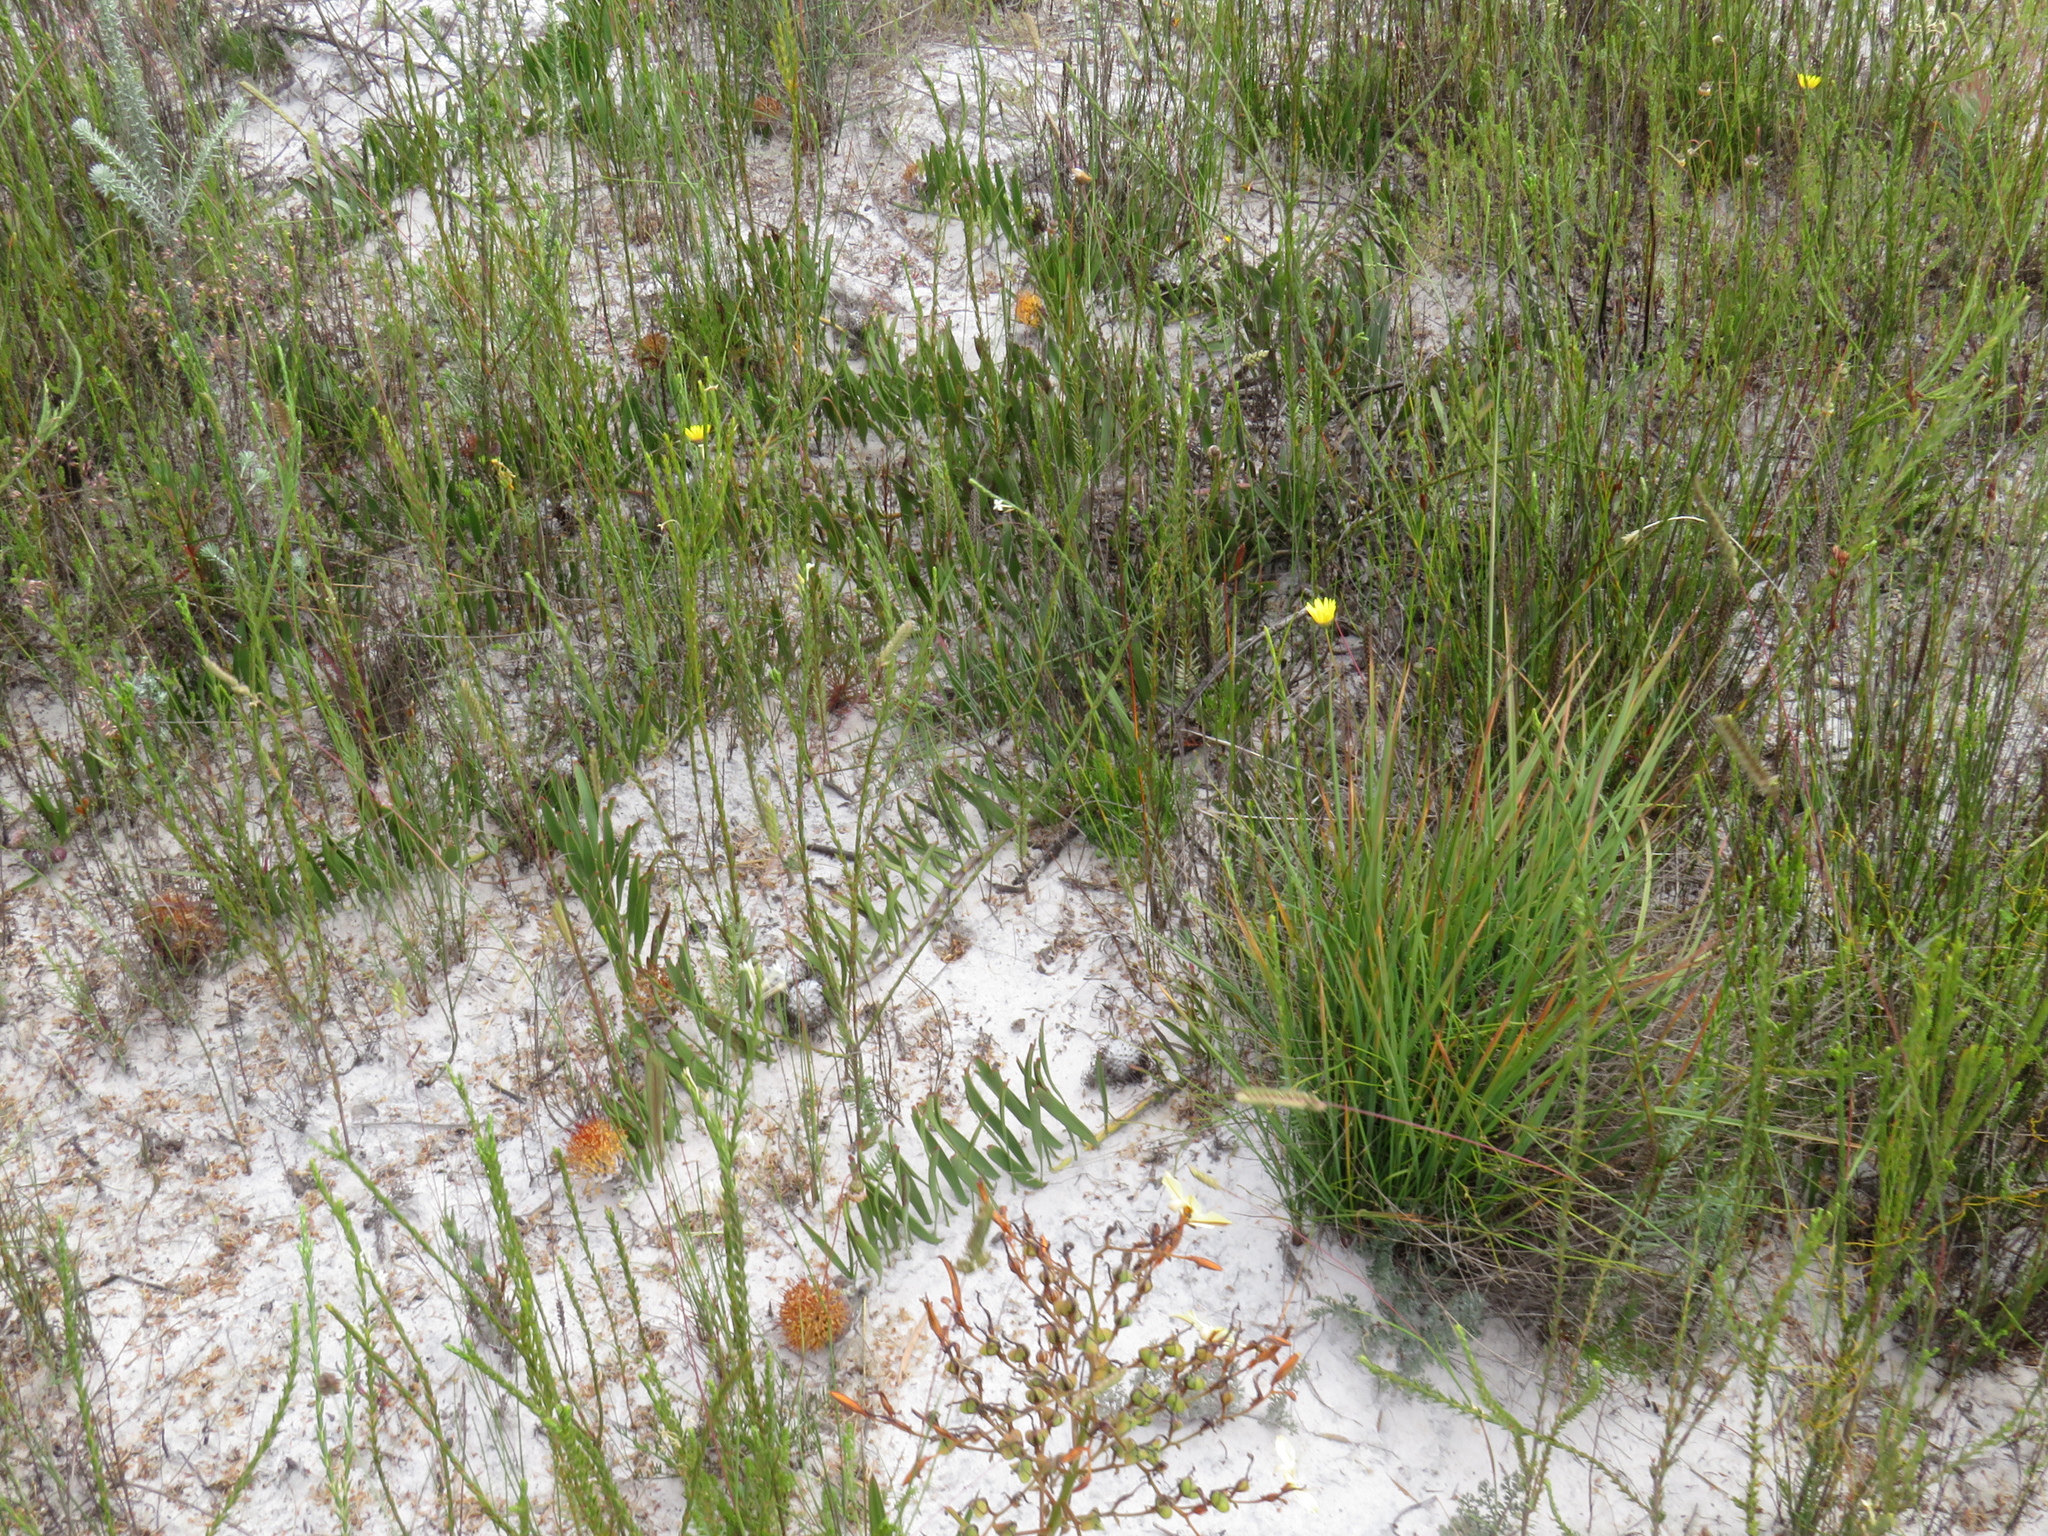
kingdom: Plantae
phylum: Tracheophyta
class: Magnoliopsida
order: Proteales
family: Proteaceae
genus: Leucospermum
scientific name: Leucospermum hypophyllocarpodendron
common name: Snakestem pincushion
